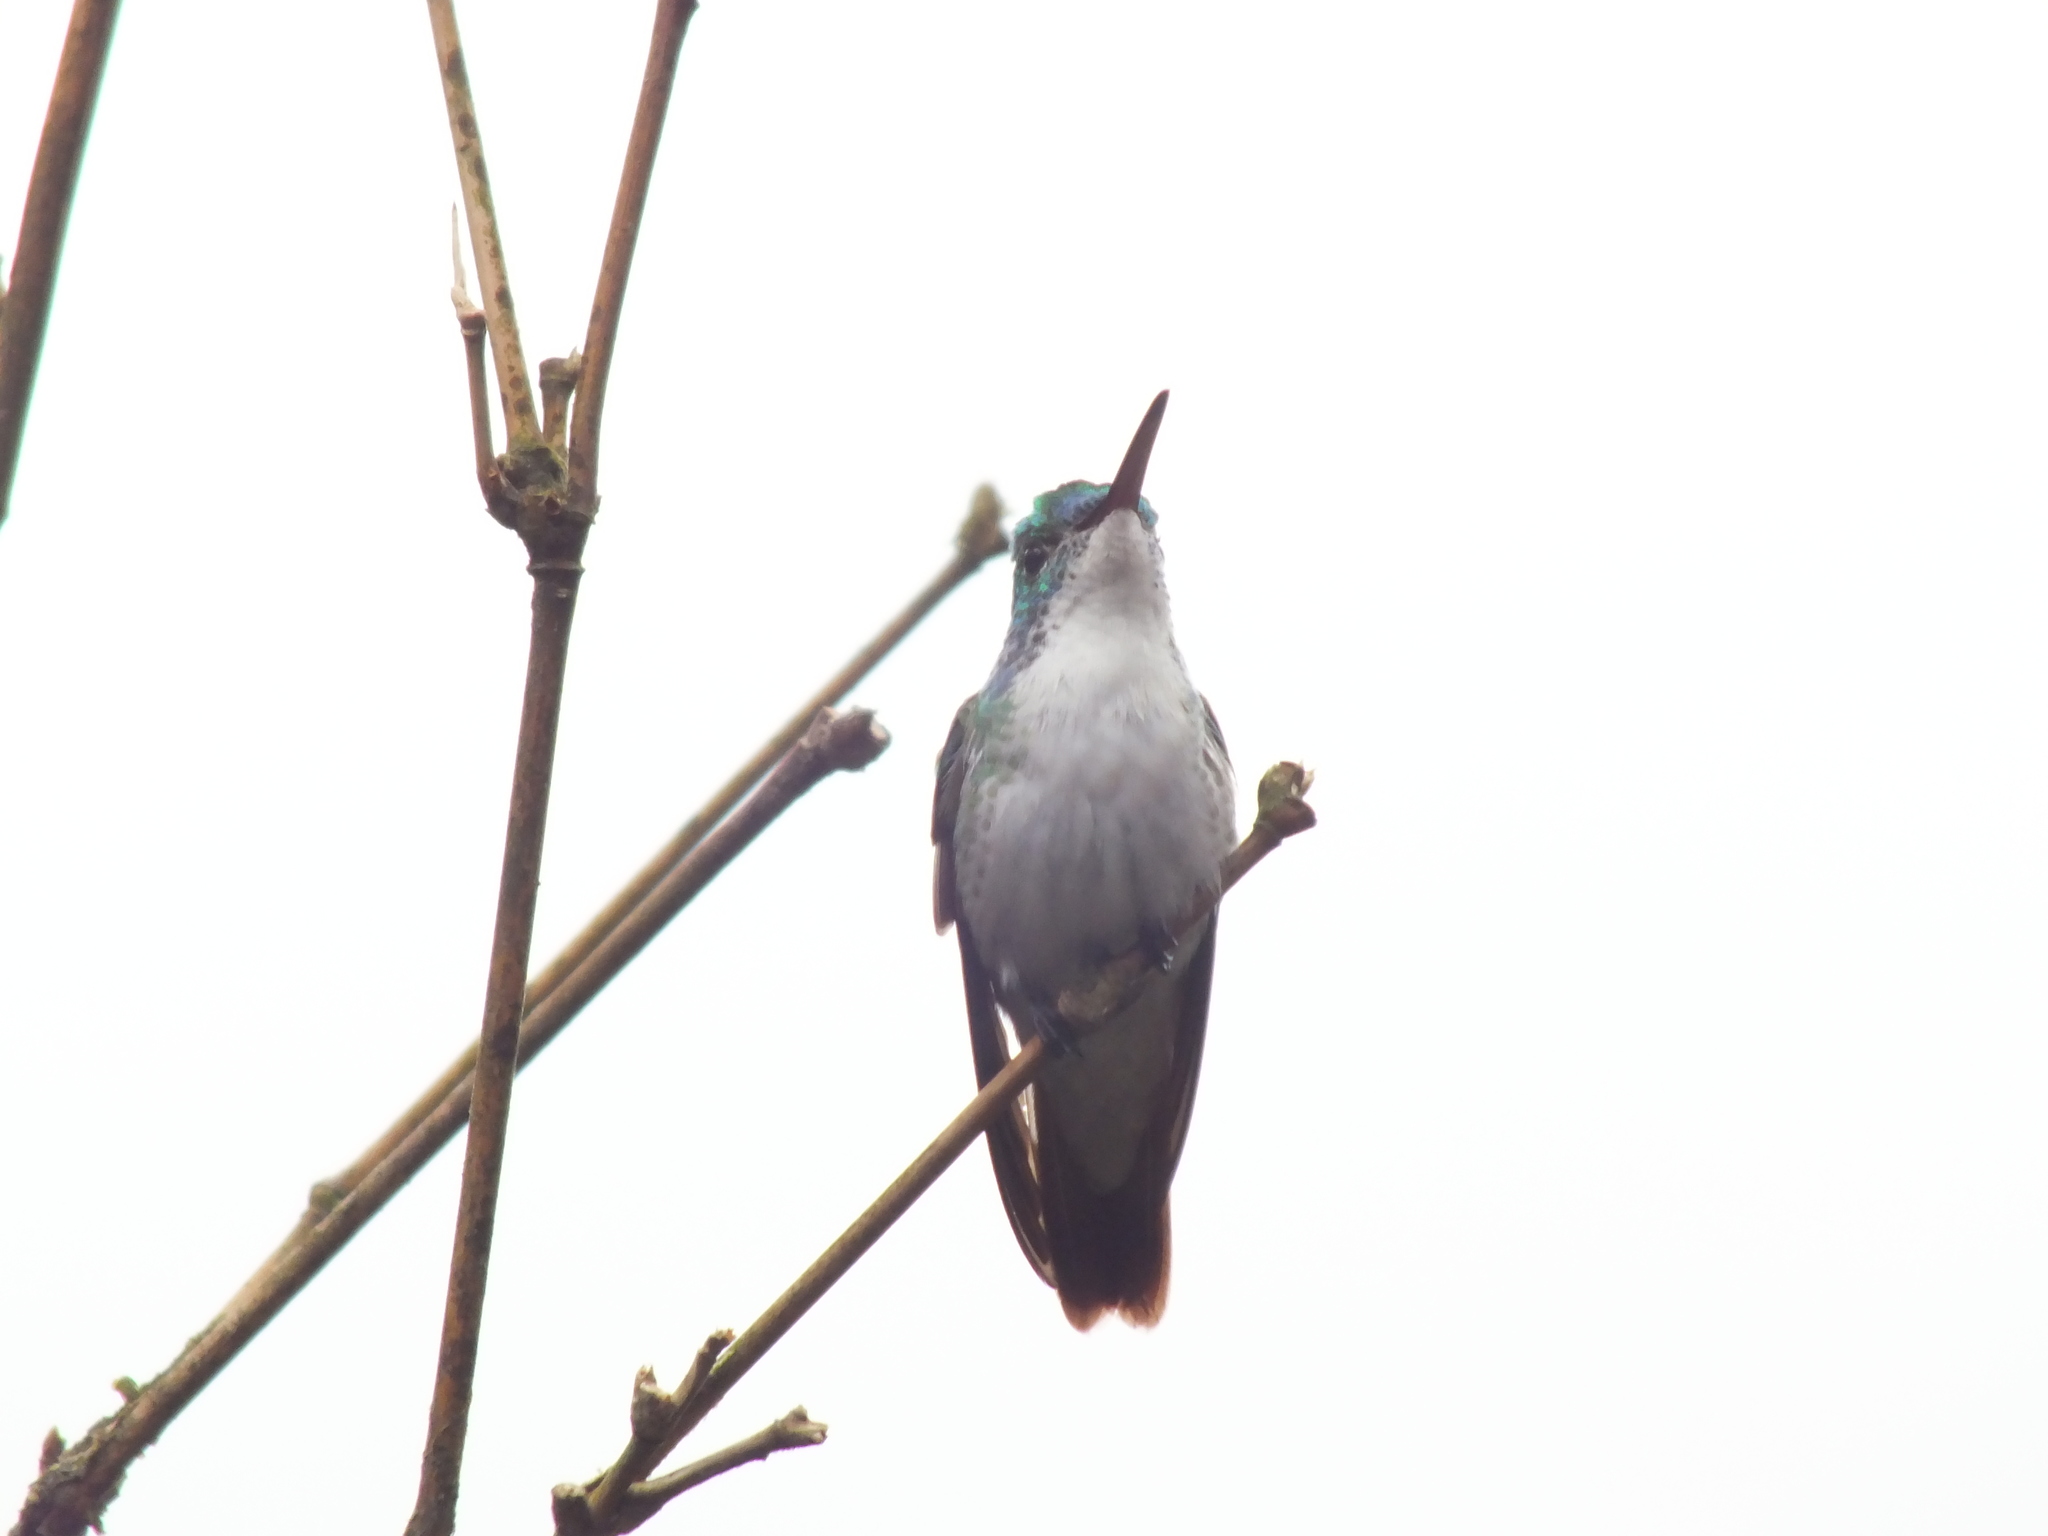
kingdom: Animalia
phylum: Chordata
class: Aves
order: Apodiformes
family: Trochilidae
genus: Uranomitra
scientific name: Uranomitra franciae
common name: Andean emerald
